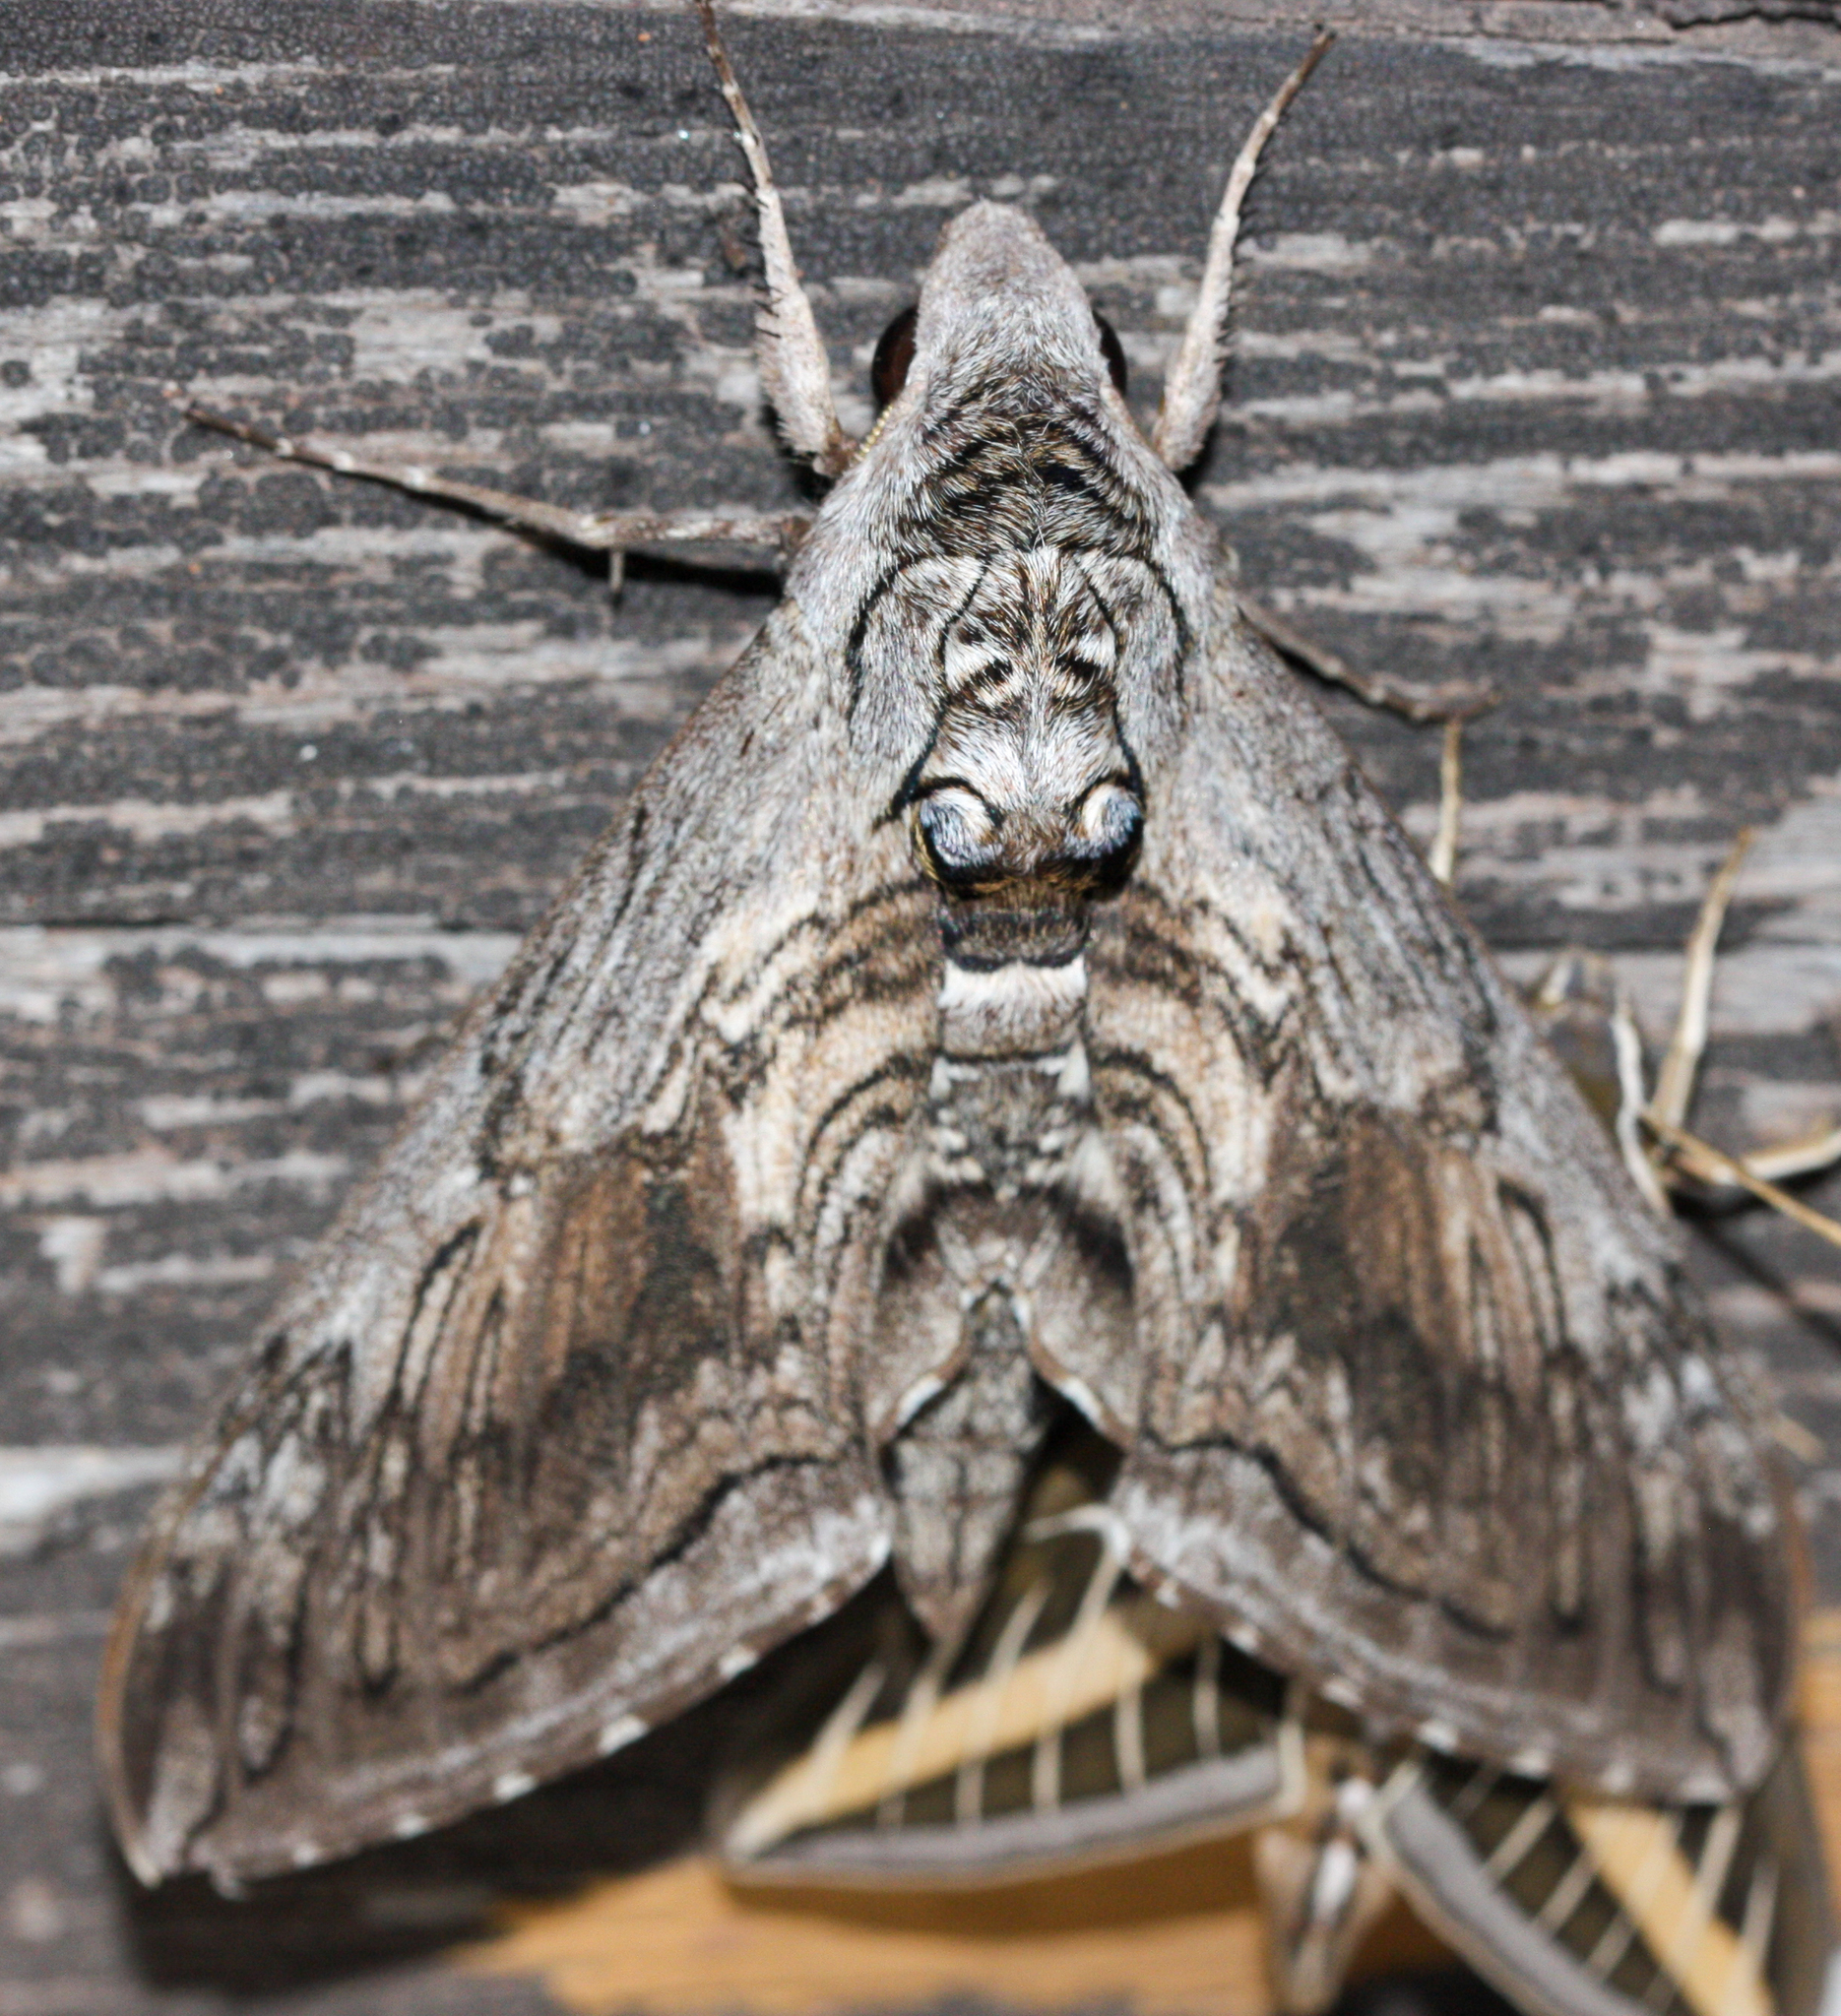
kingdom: Animalia
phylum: Arthropoda
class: Insecta
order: Lepidoptera
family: Sphingidae
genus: Manduca
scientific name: Manduca quinquemaculatus
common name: Five-spotted hawk-moth
